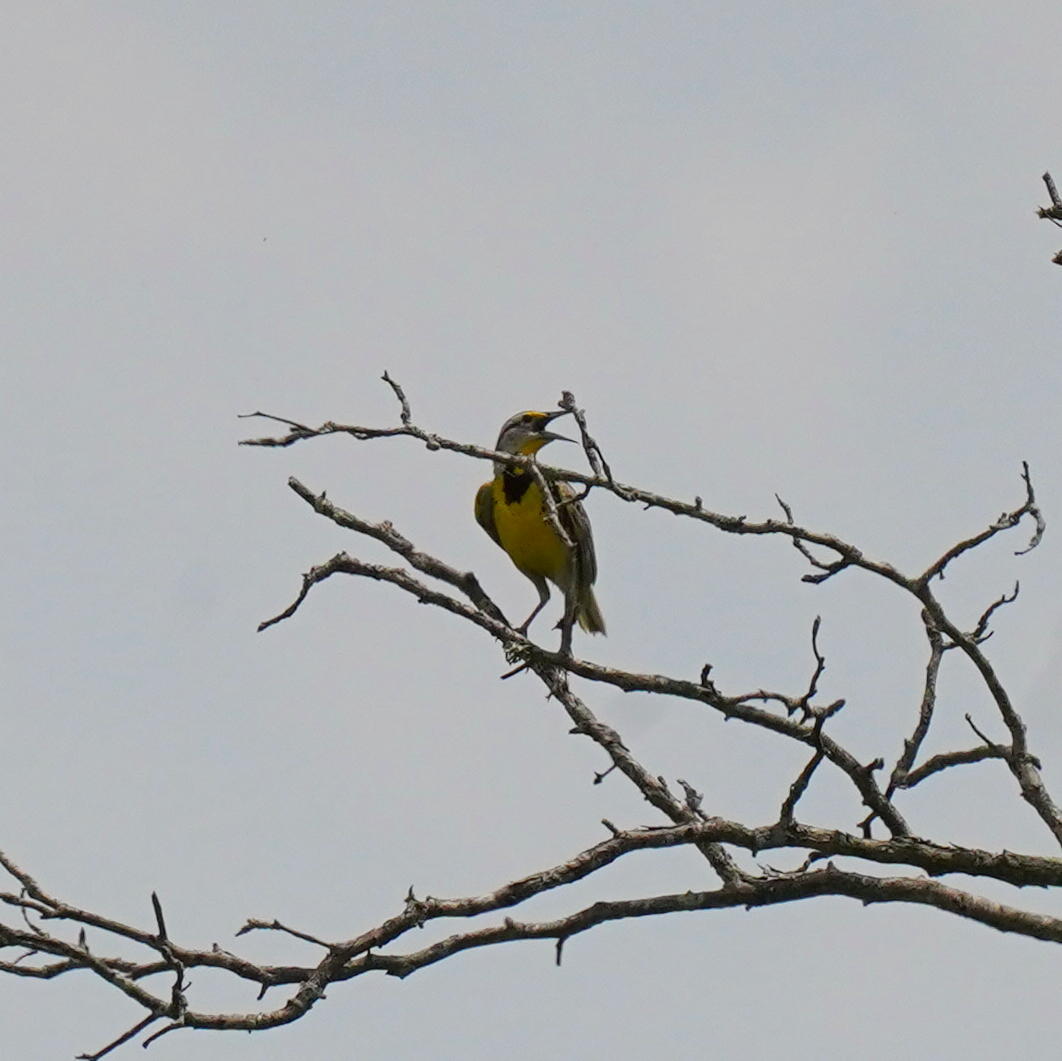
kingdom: Animalia
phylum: Chordata
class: Aves
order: Passeriformes
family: Icteridae
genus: Sturnella
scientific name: Sturnella magna
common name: Eastern meadowlark
